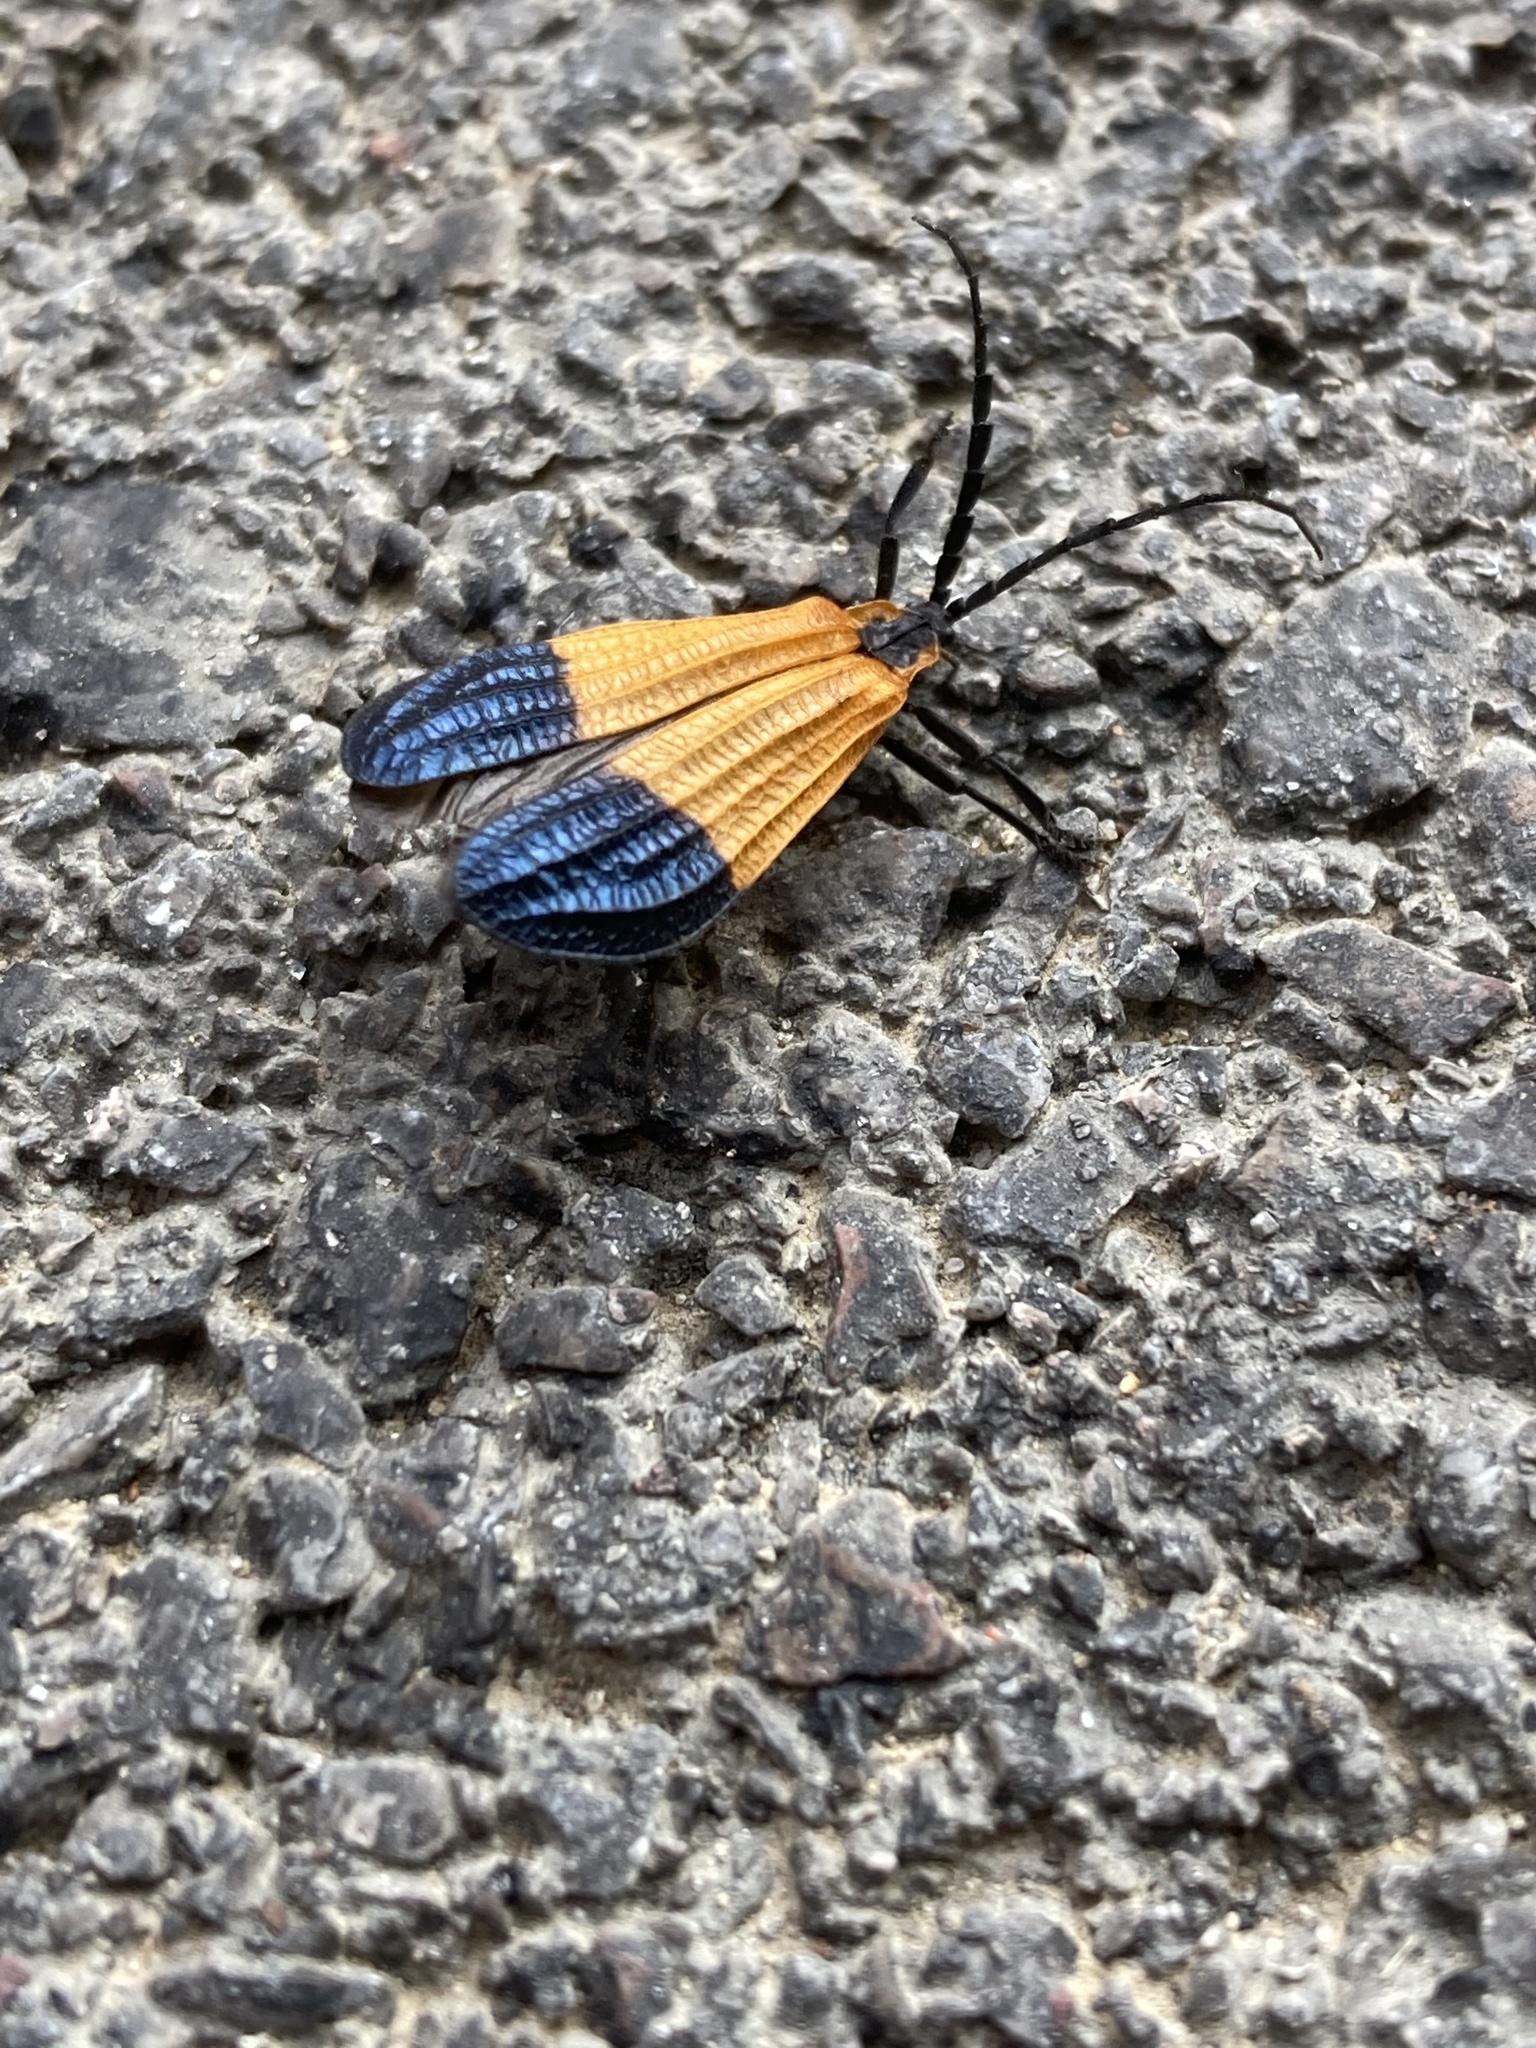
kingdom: Animalia
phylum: Arthropoda
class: Insecta
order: Coleoptera
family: Lycidae
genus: Calopteron
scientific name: Calopteron terminale
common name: End band net-winged beetle
